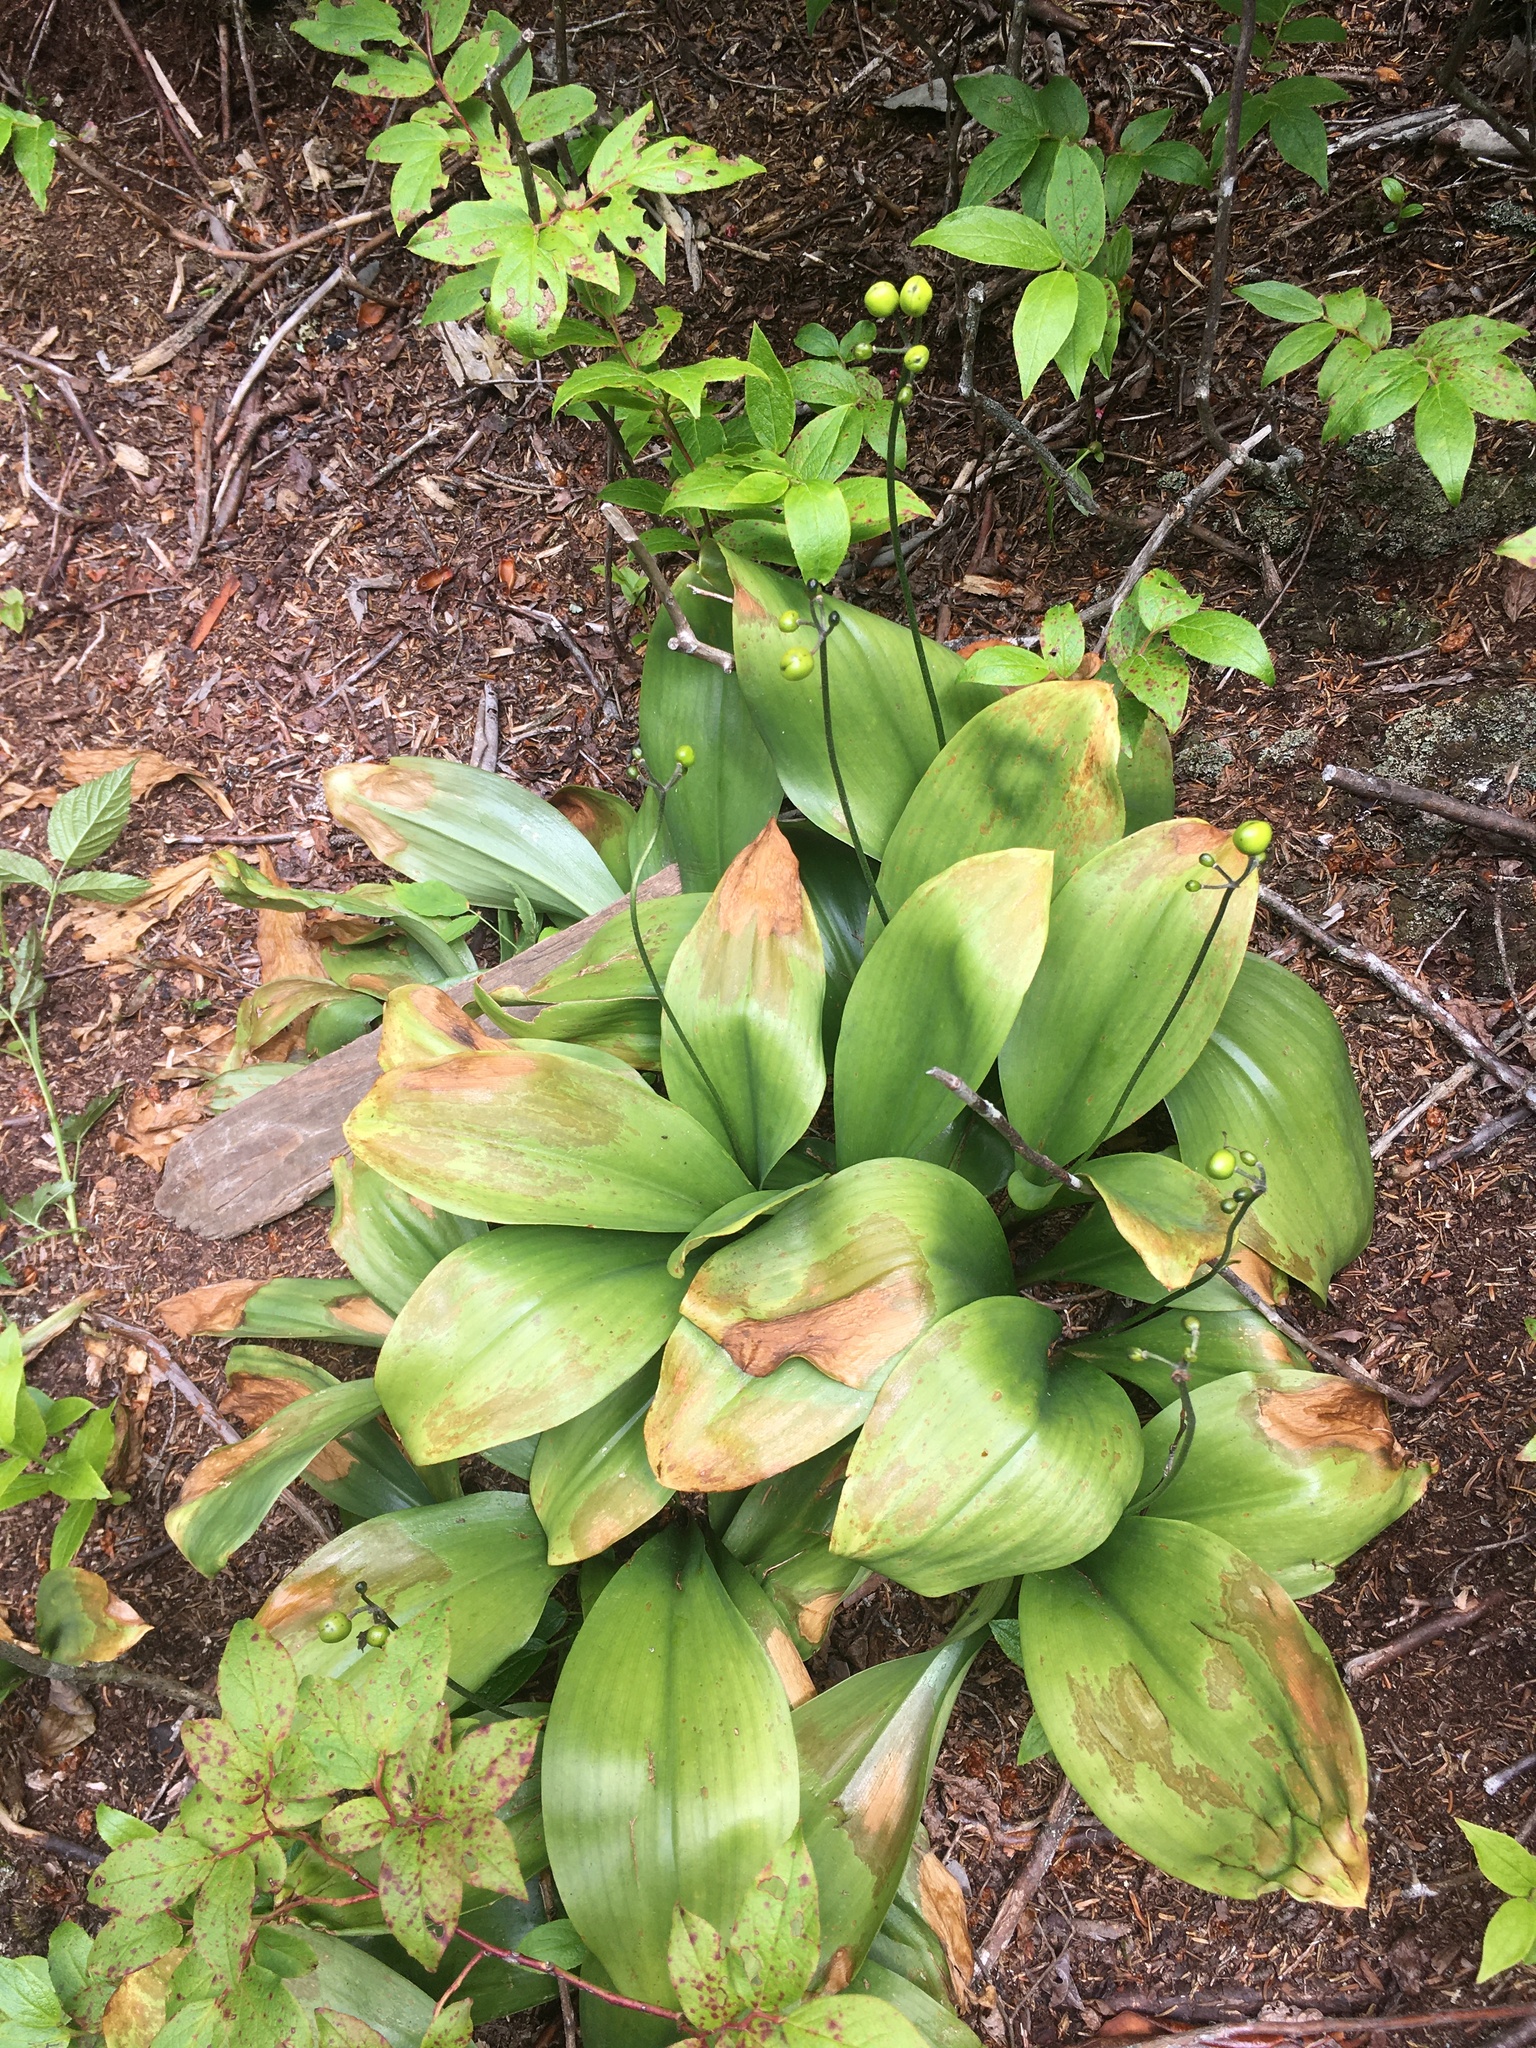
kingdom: Plantae
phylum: Tracheophyta
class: Liliopsida
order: Liliales
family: Liliaceae
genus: Clintonia
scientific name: Clintonia borealis
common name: Yellow clintonia
